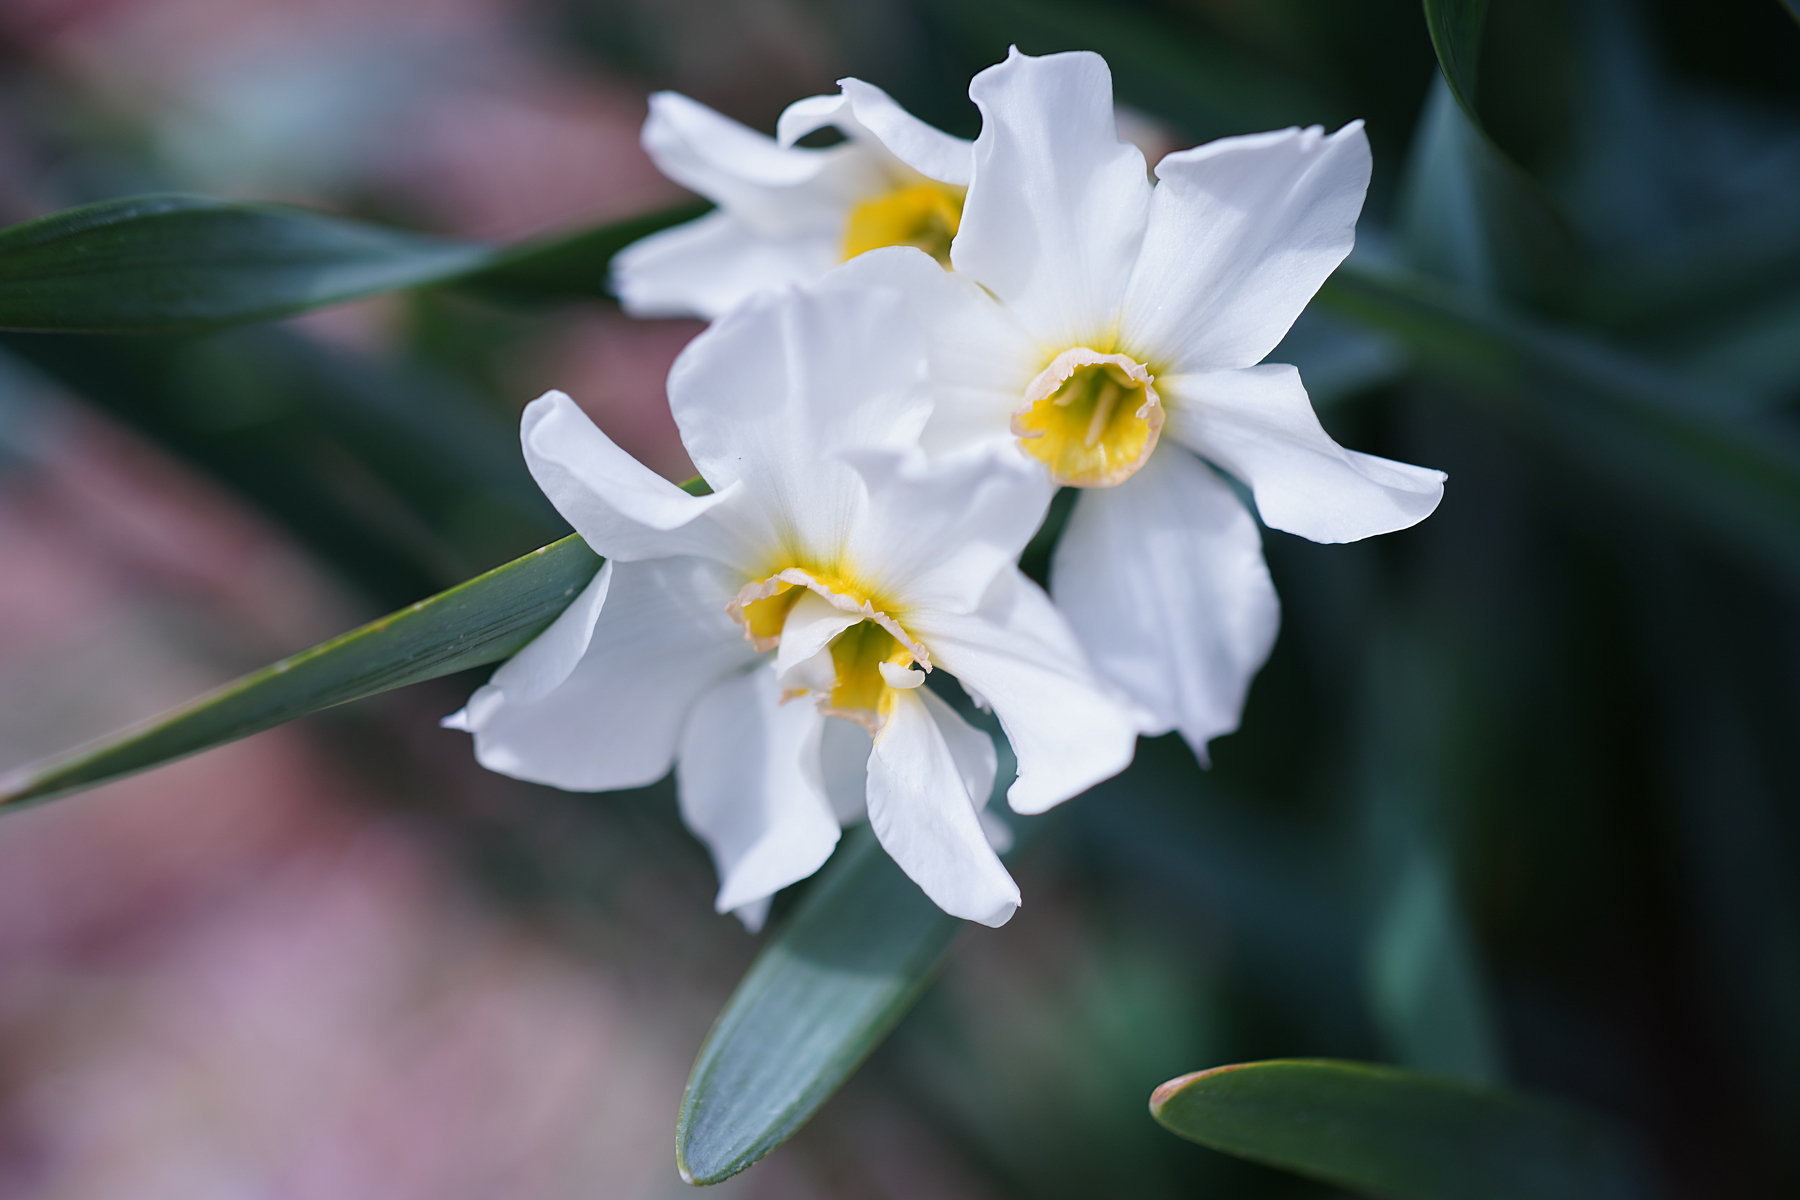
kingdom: Plantae
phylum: Tracheophyta
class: Liliopsida
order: Asparagales
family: Amaryllidaceae
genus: Narcissus
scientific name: Narcissus poeticus
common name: Pheasant's-eye daffodil
